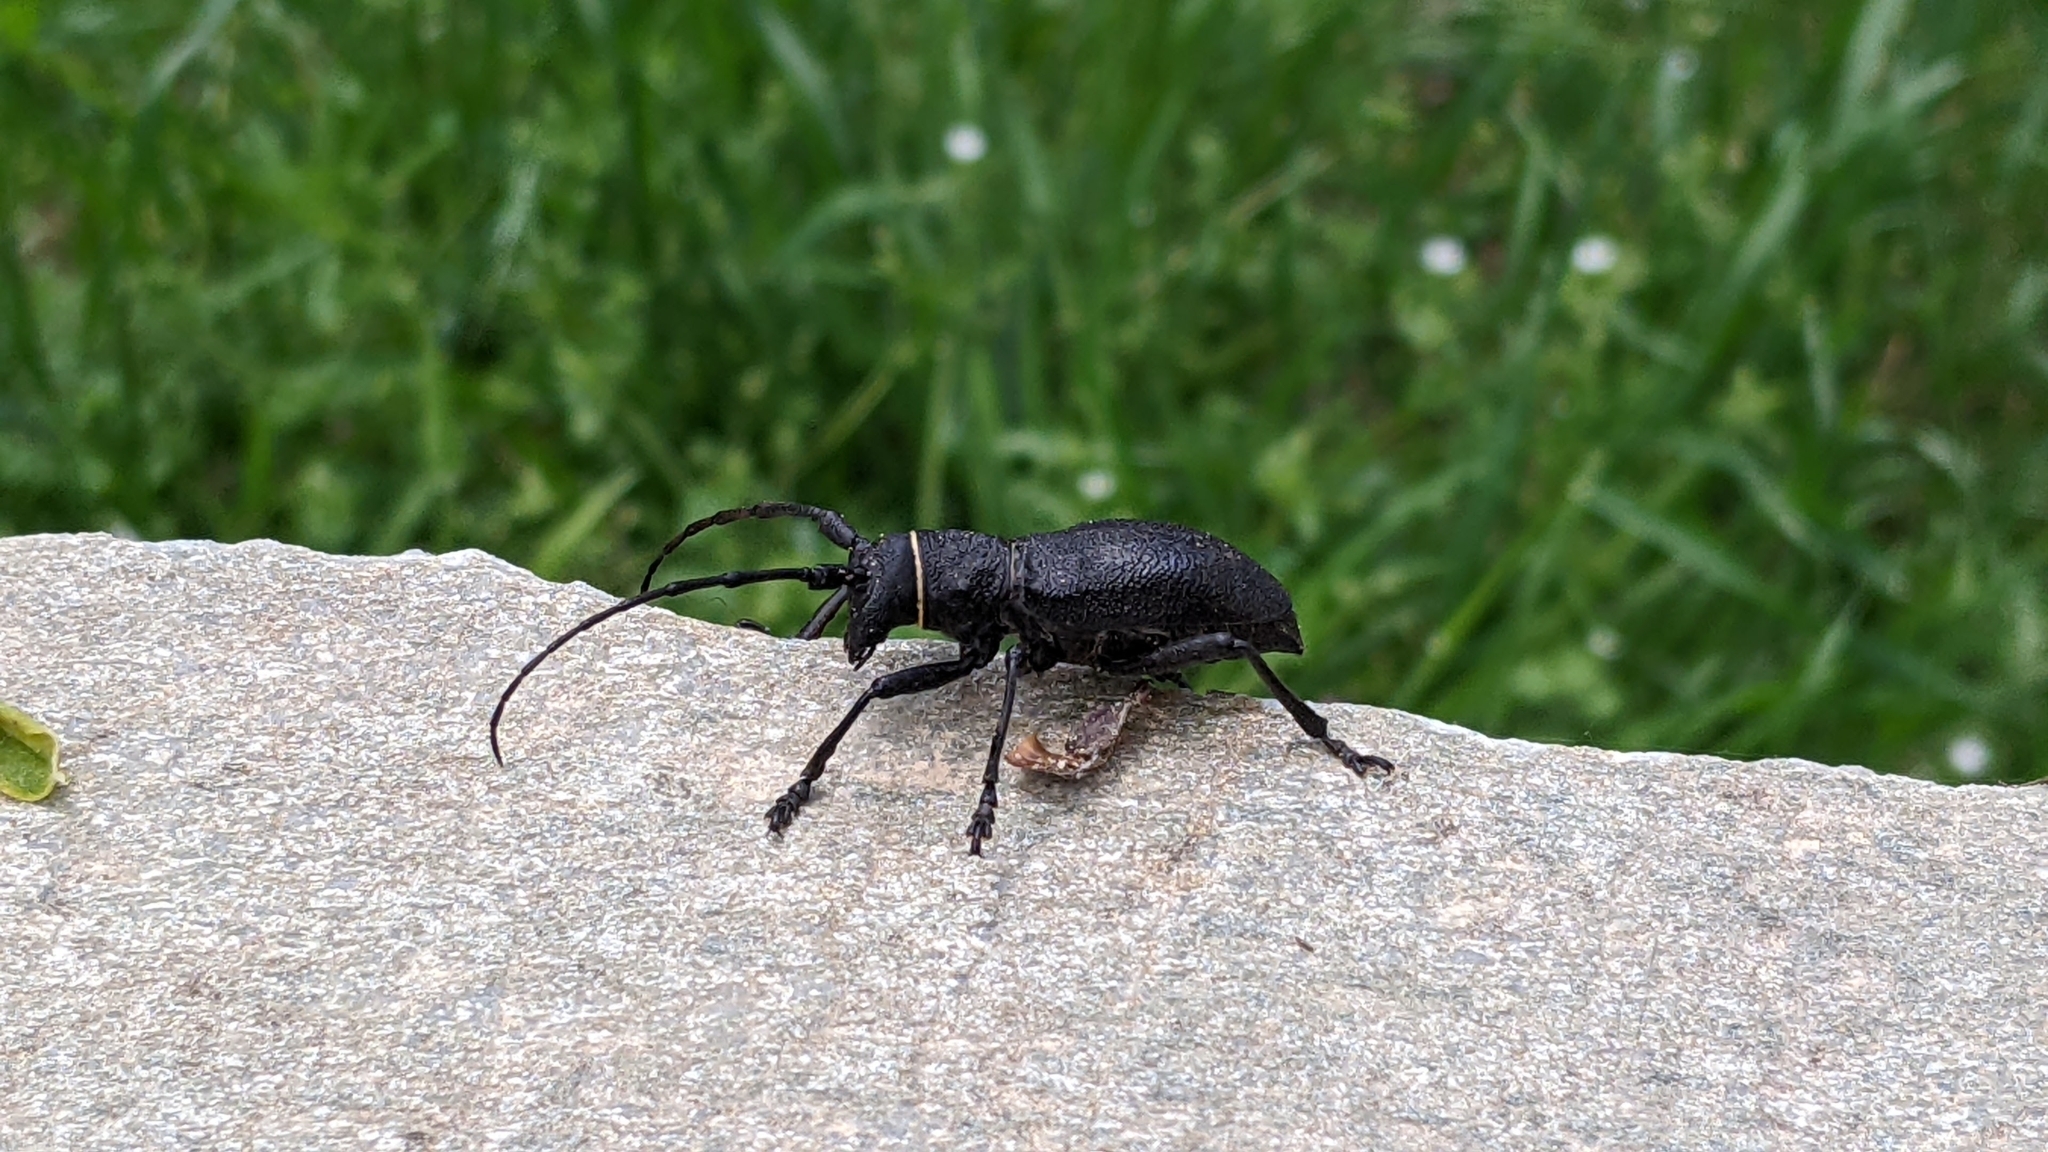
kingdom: Animalia
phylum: Arthropoda
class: Insecta
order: Coleoptera
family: Cerambycidae
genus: Morimus
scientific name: Morimus asper
